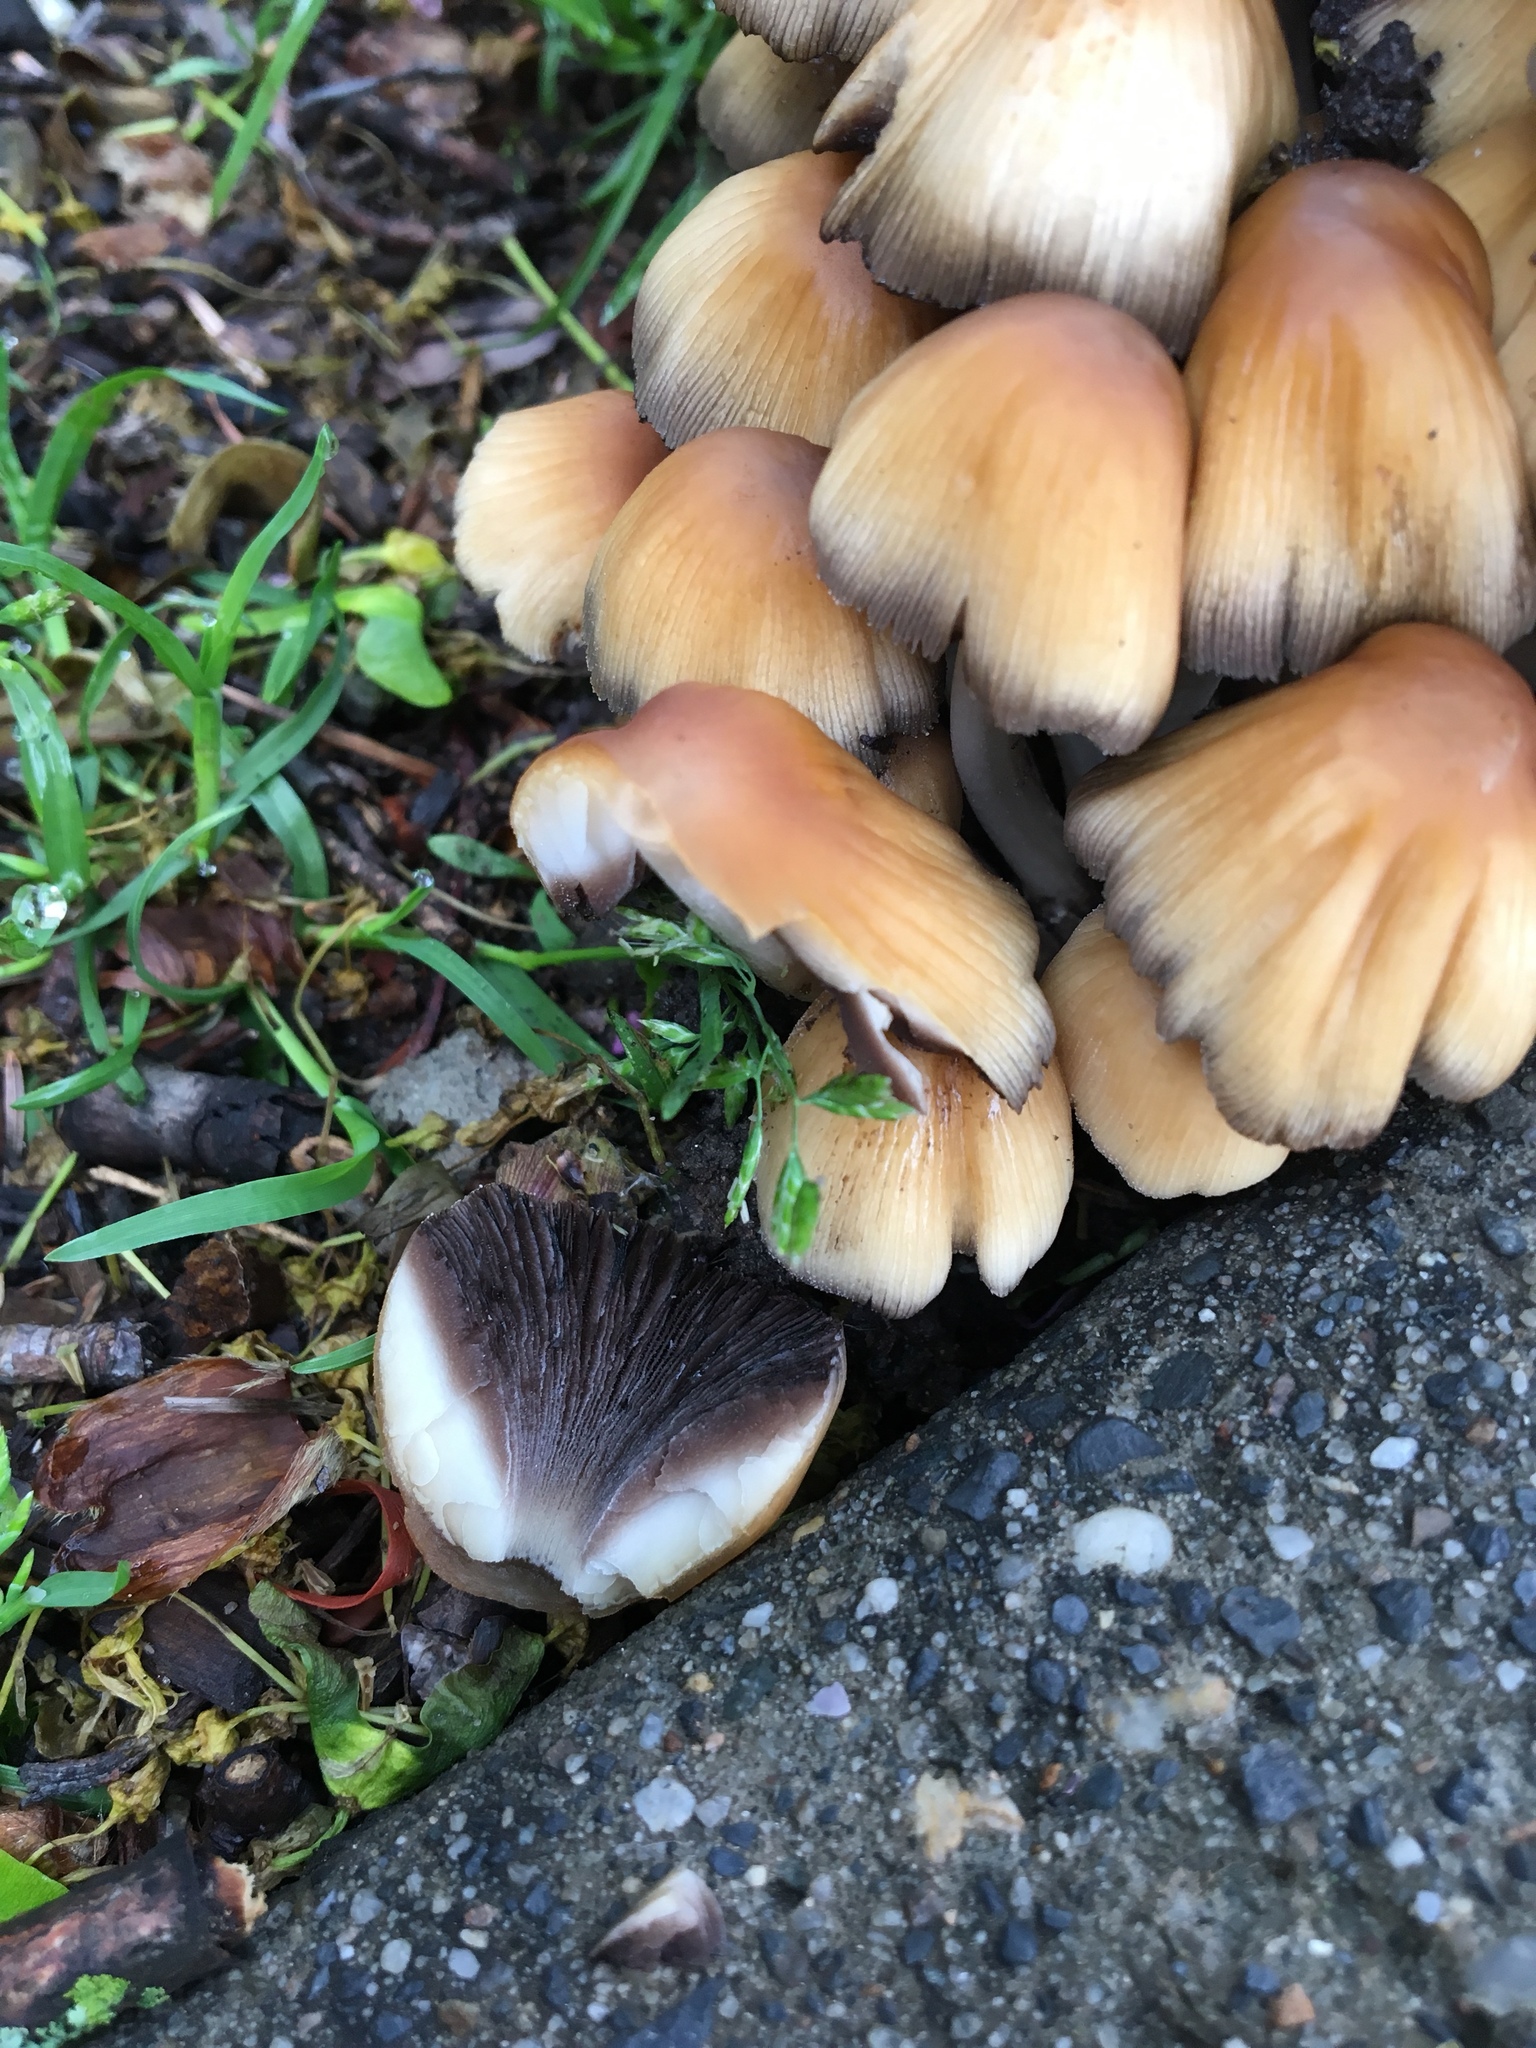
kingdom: Fungi
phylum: Basidiomycota
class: Agaricomycetes
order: Agaricales
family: Psathyrellaceae
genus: Coprinellus
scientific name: Coprinellus micaceus
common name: Glistening ink-cap
